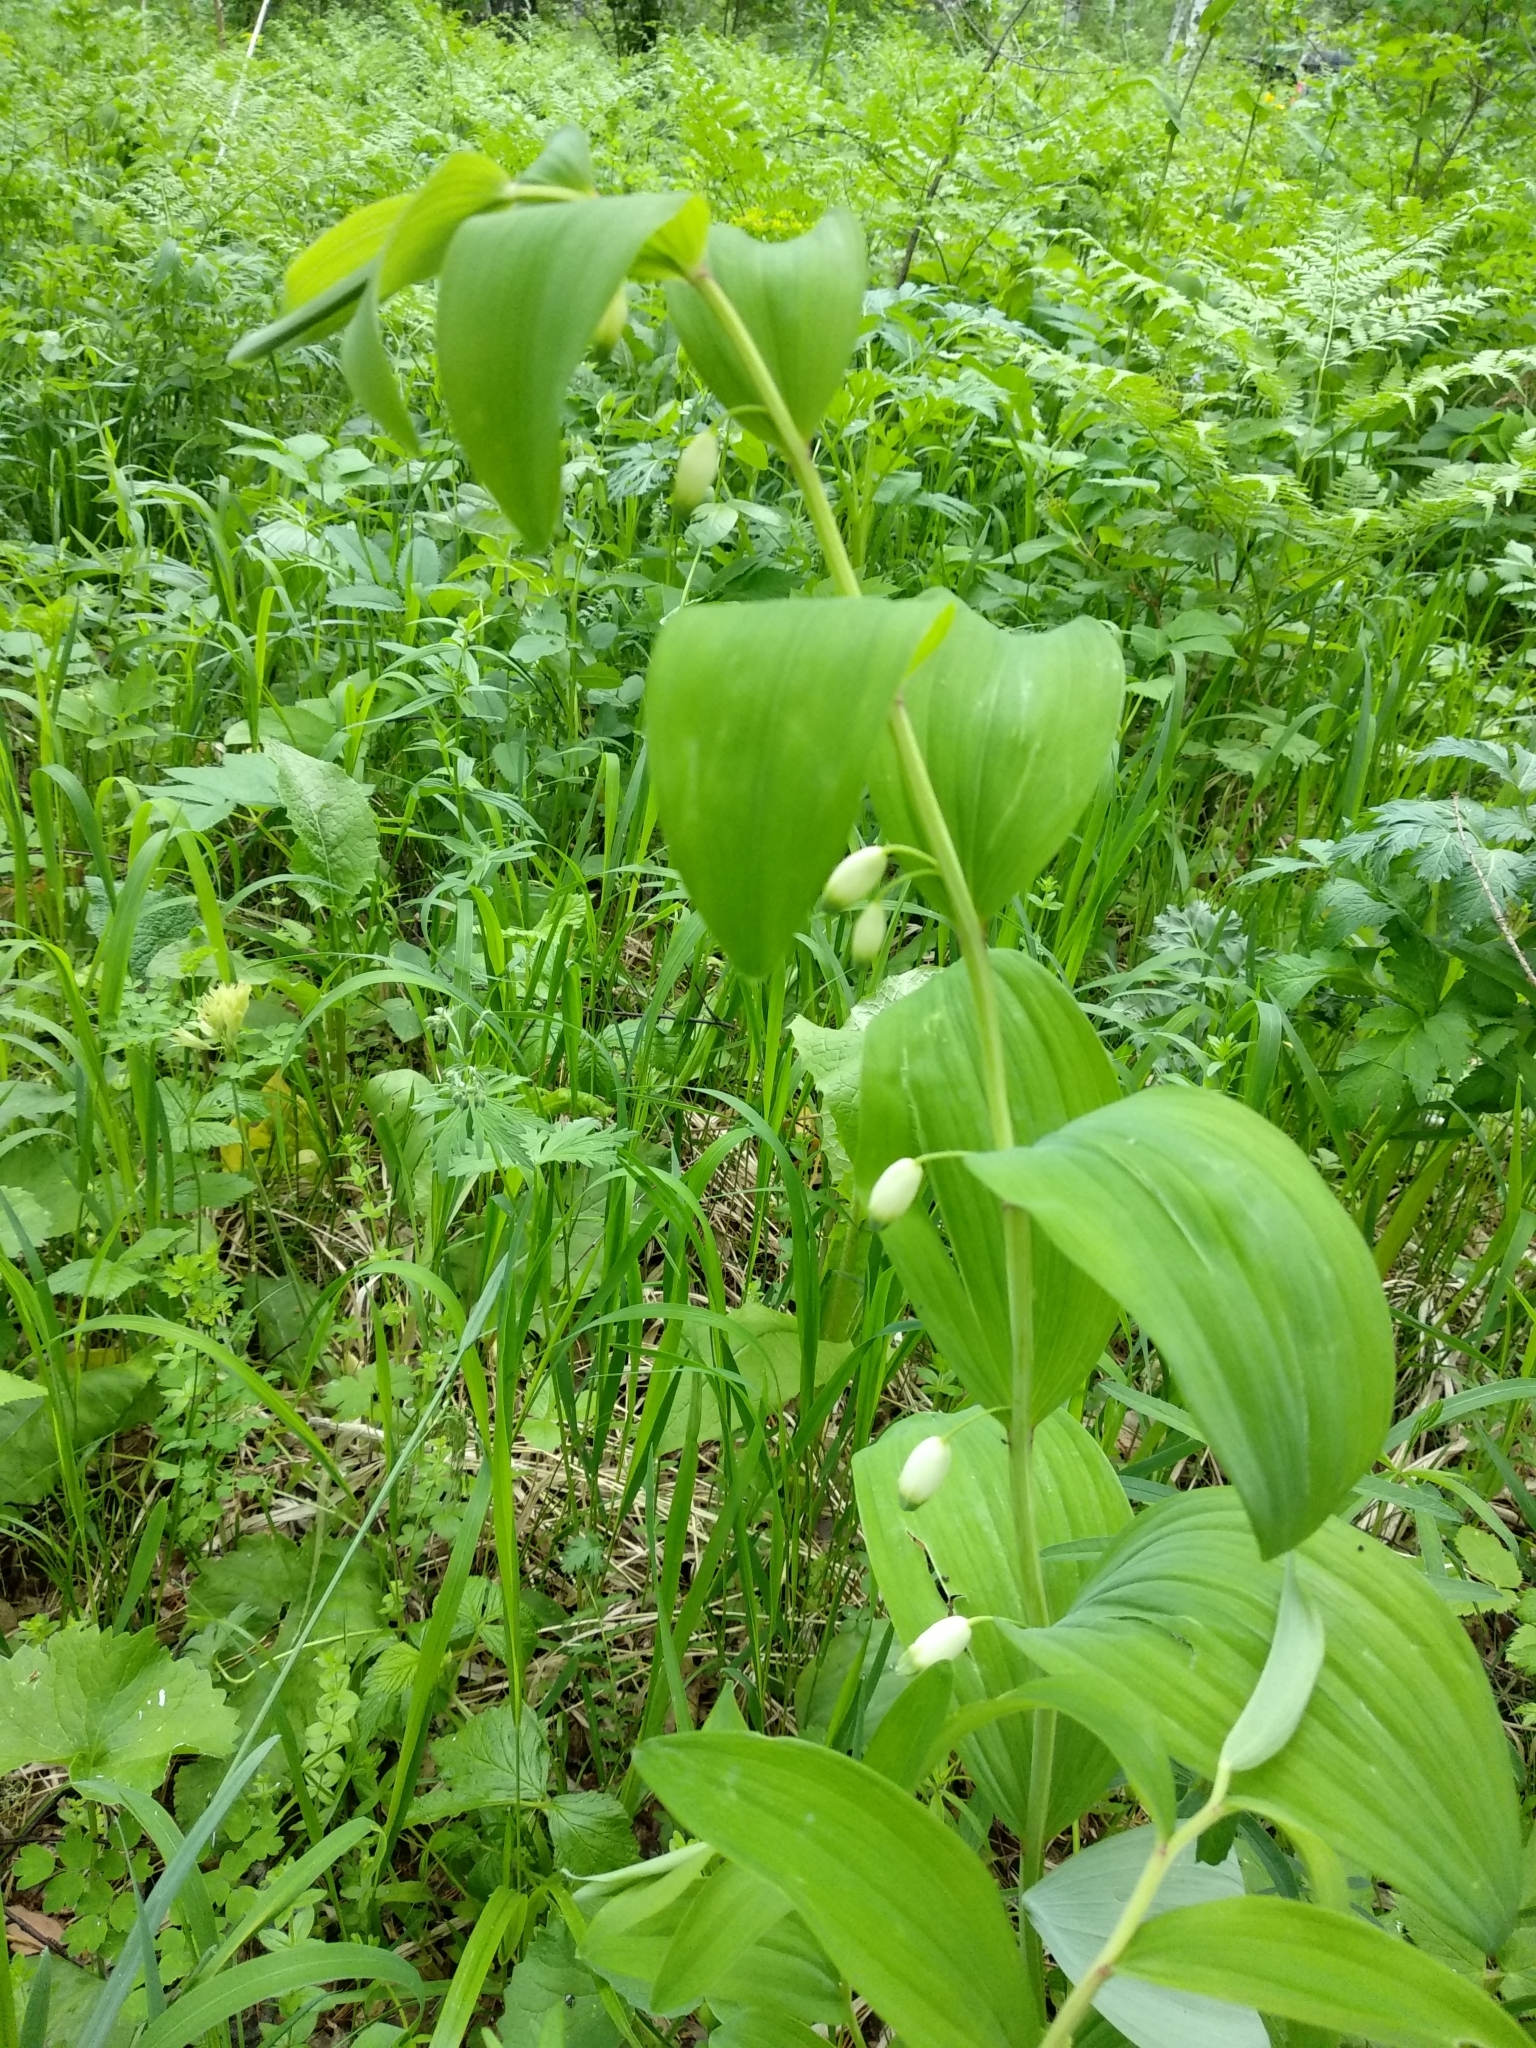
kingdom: Plantae
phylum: Tracheophyta
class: Liliopsida
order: Asparagales
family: Asparagaceae
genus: Polygonatum
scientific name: Polygonatum odoratum
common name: Angular solomon's-seal
